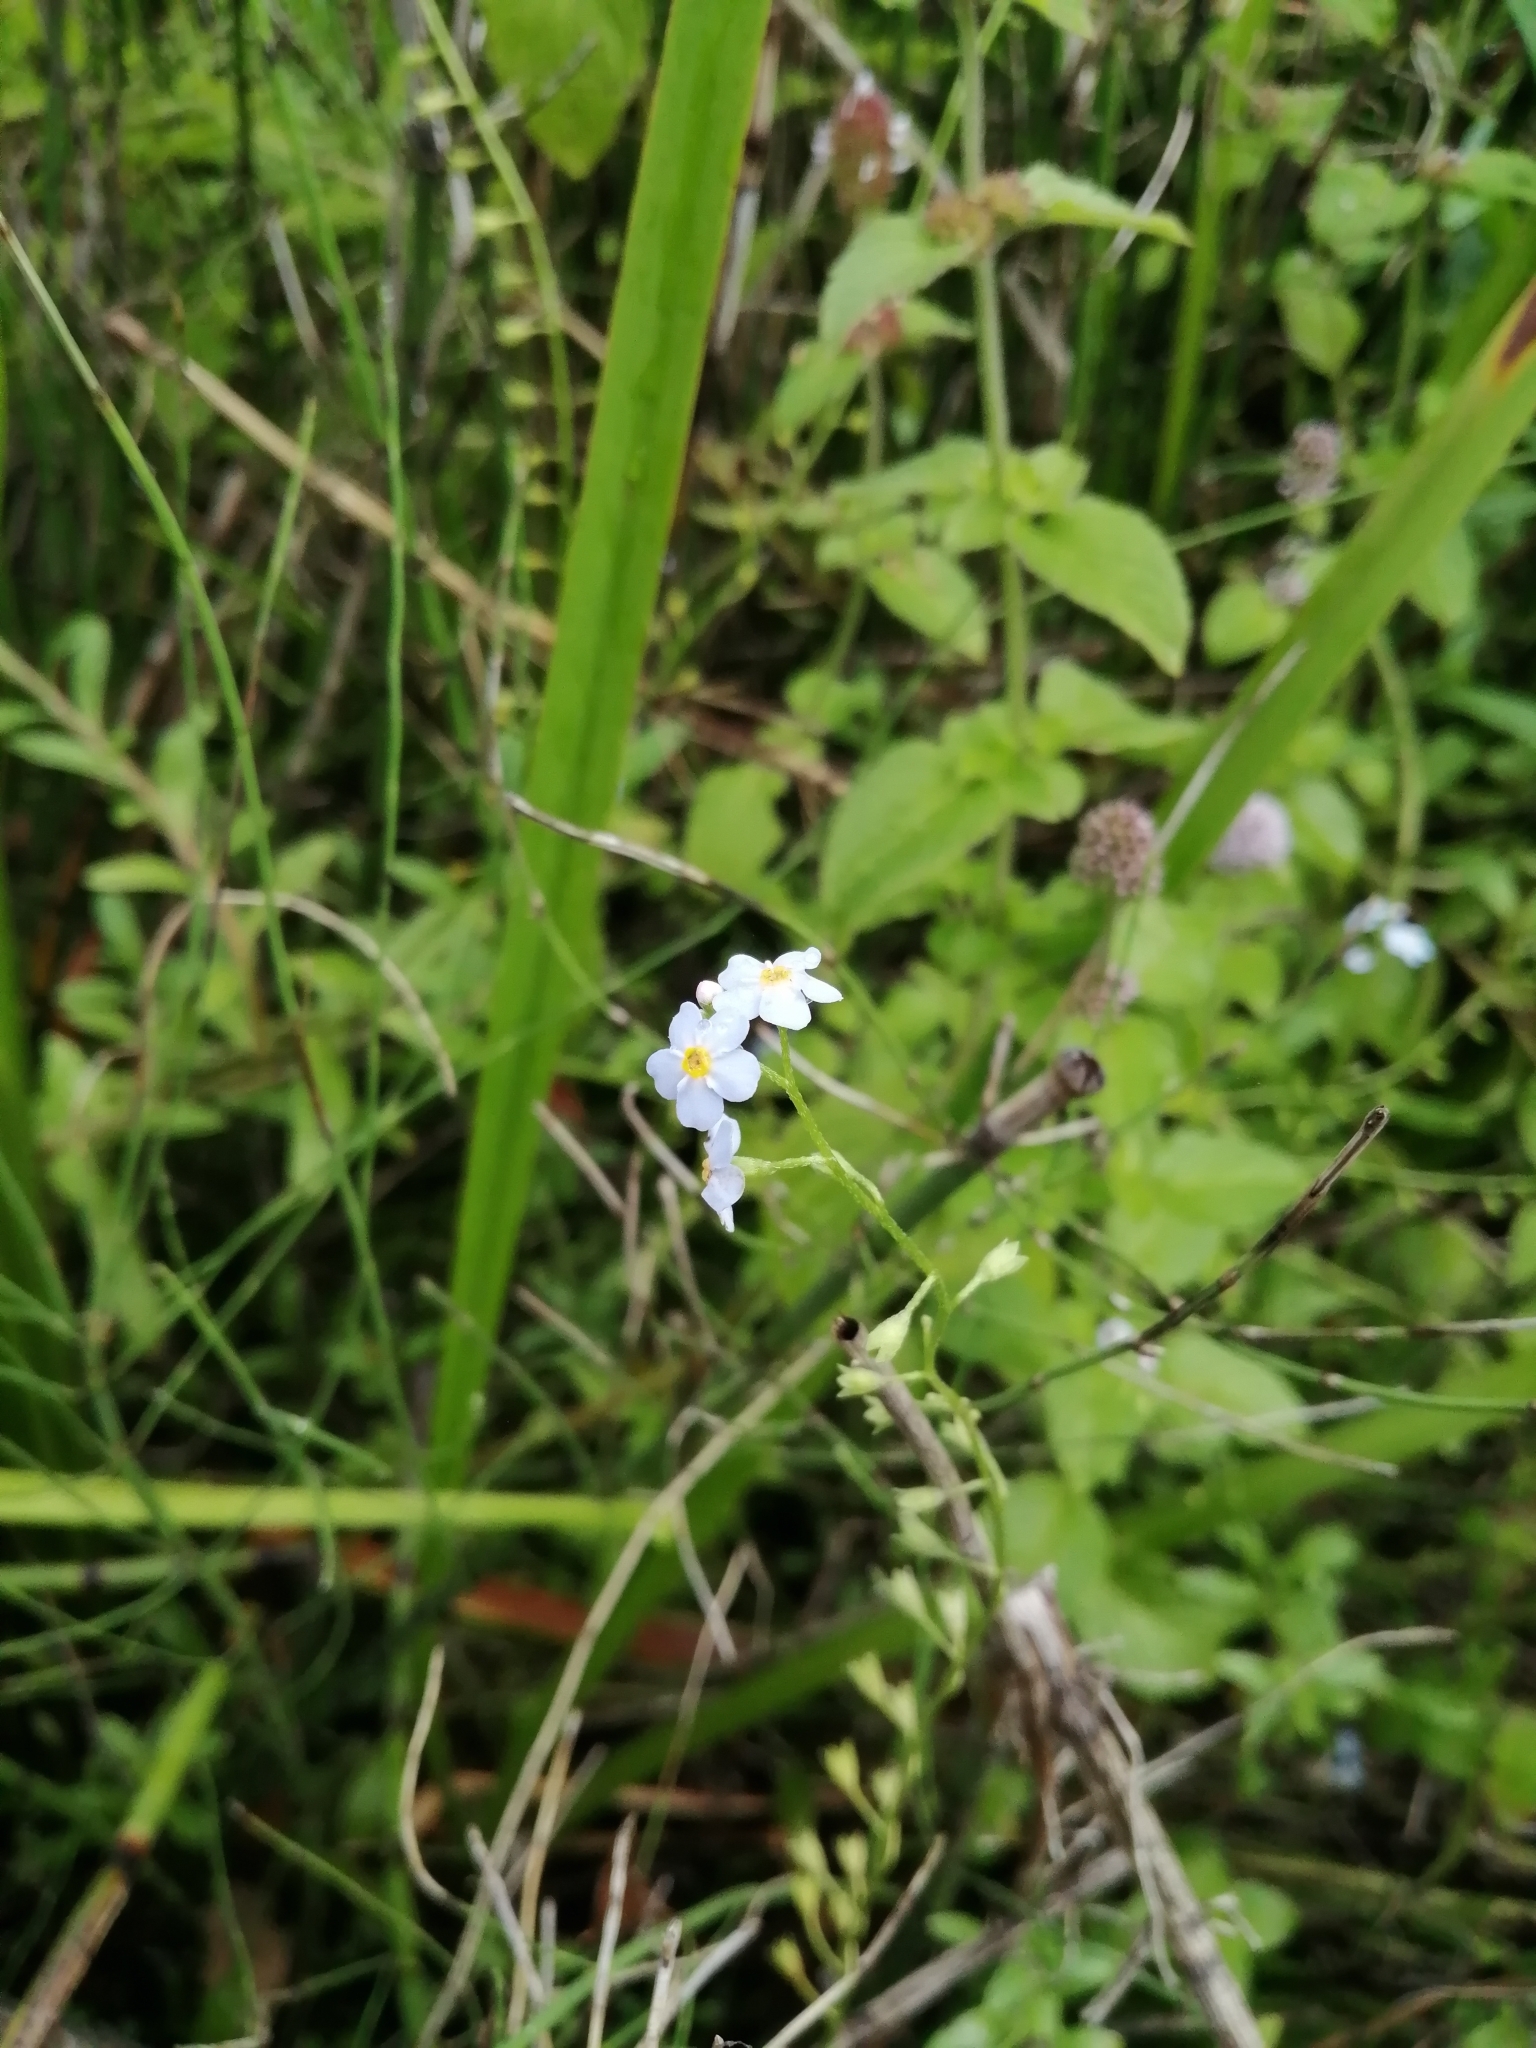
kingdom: Plantae
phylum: Tracheophyta
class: Magnoliopsida
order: Boraginales
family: Boraginaceae
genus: Myosotis
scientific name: Myosotis scorpioides
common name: Water forget-me-not
